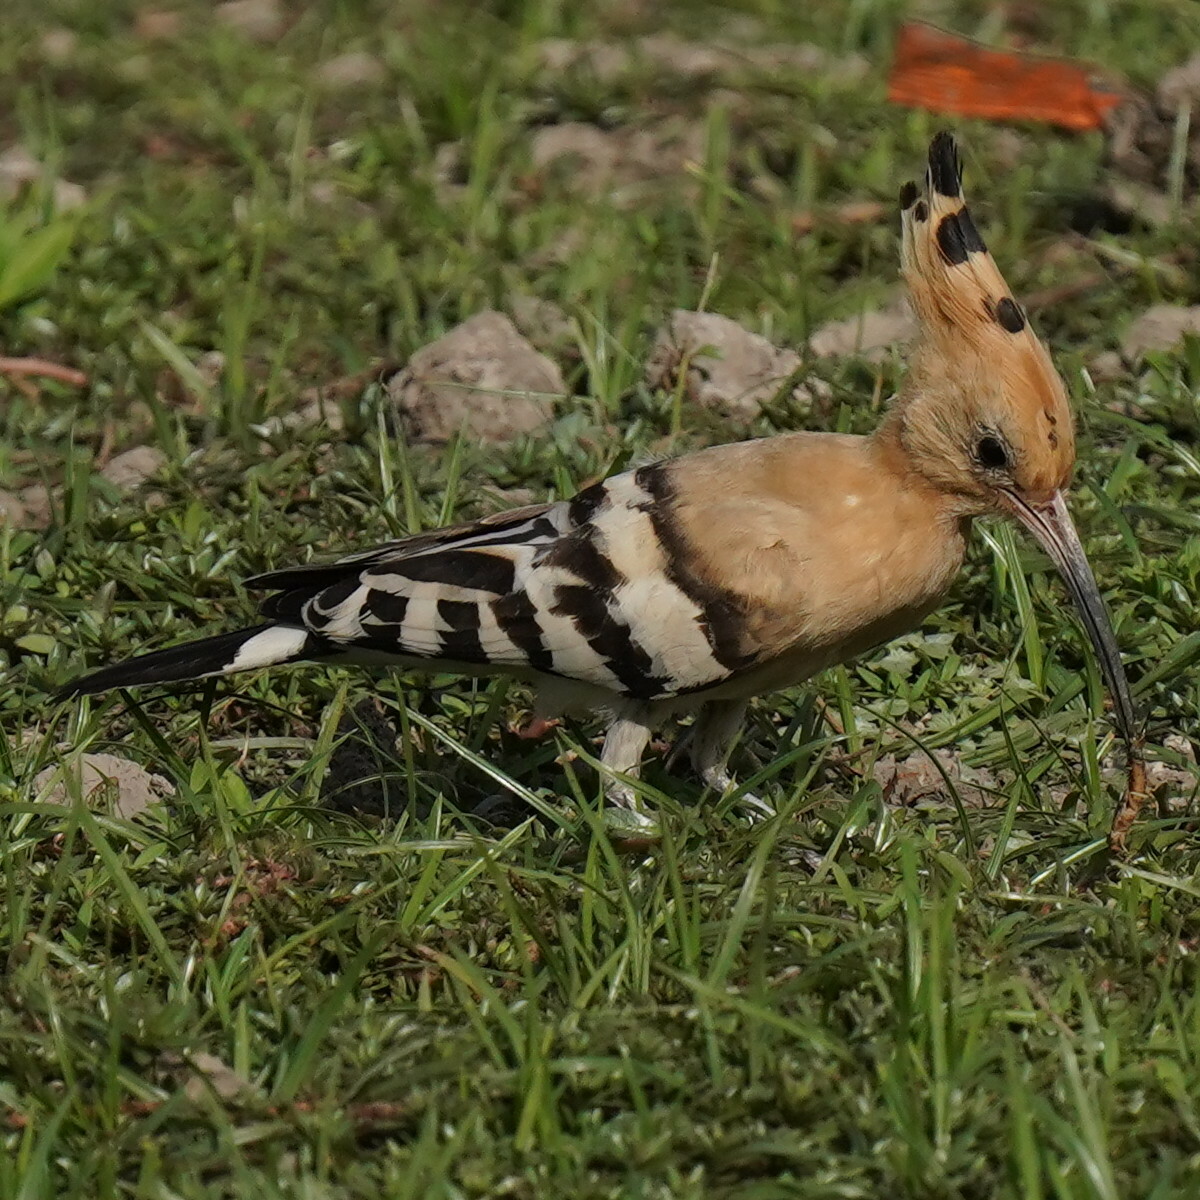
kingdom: Animalia
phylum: Chordata
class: Aves
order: Bucerotiformes
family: Upupidae
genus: Upupa
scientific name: Upupa epops
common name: Eurasian hoopoe
